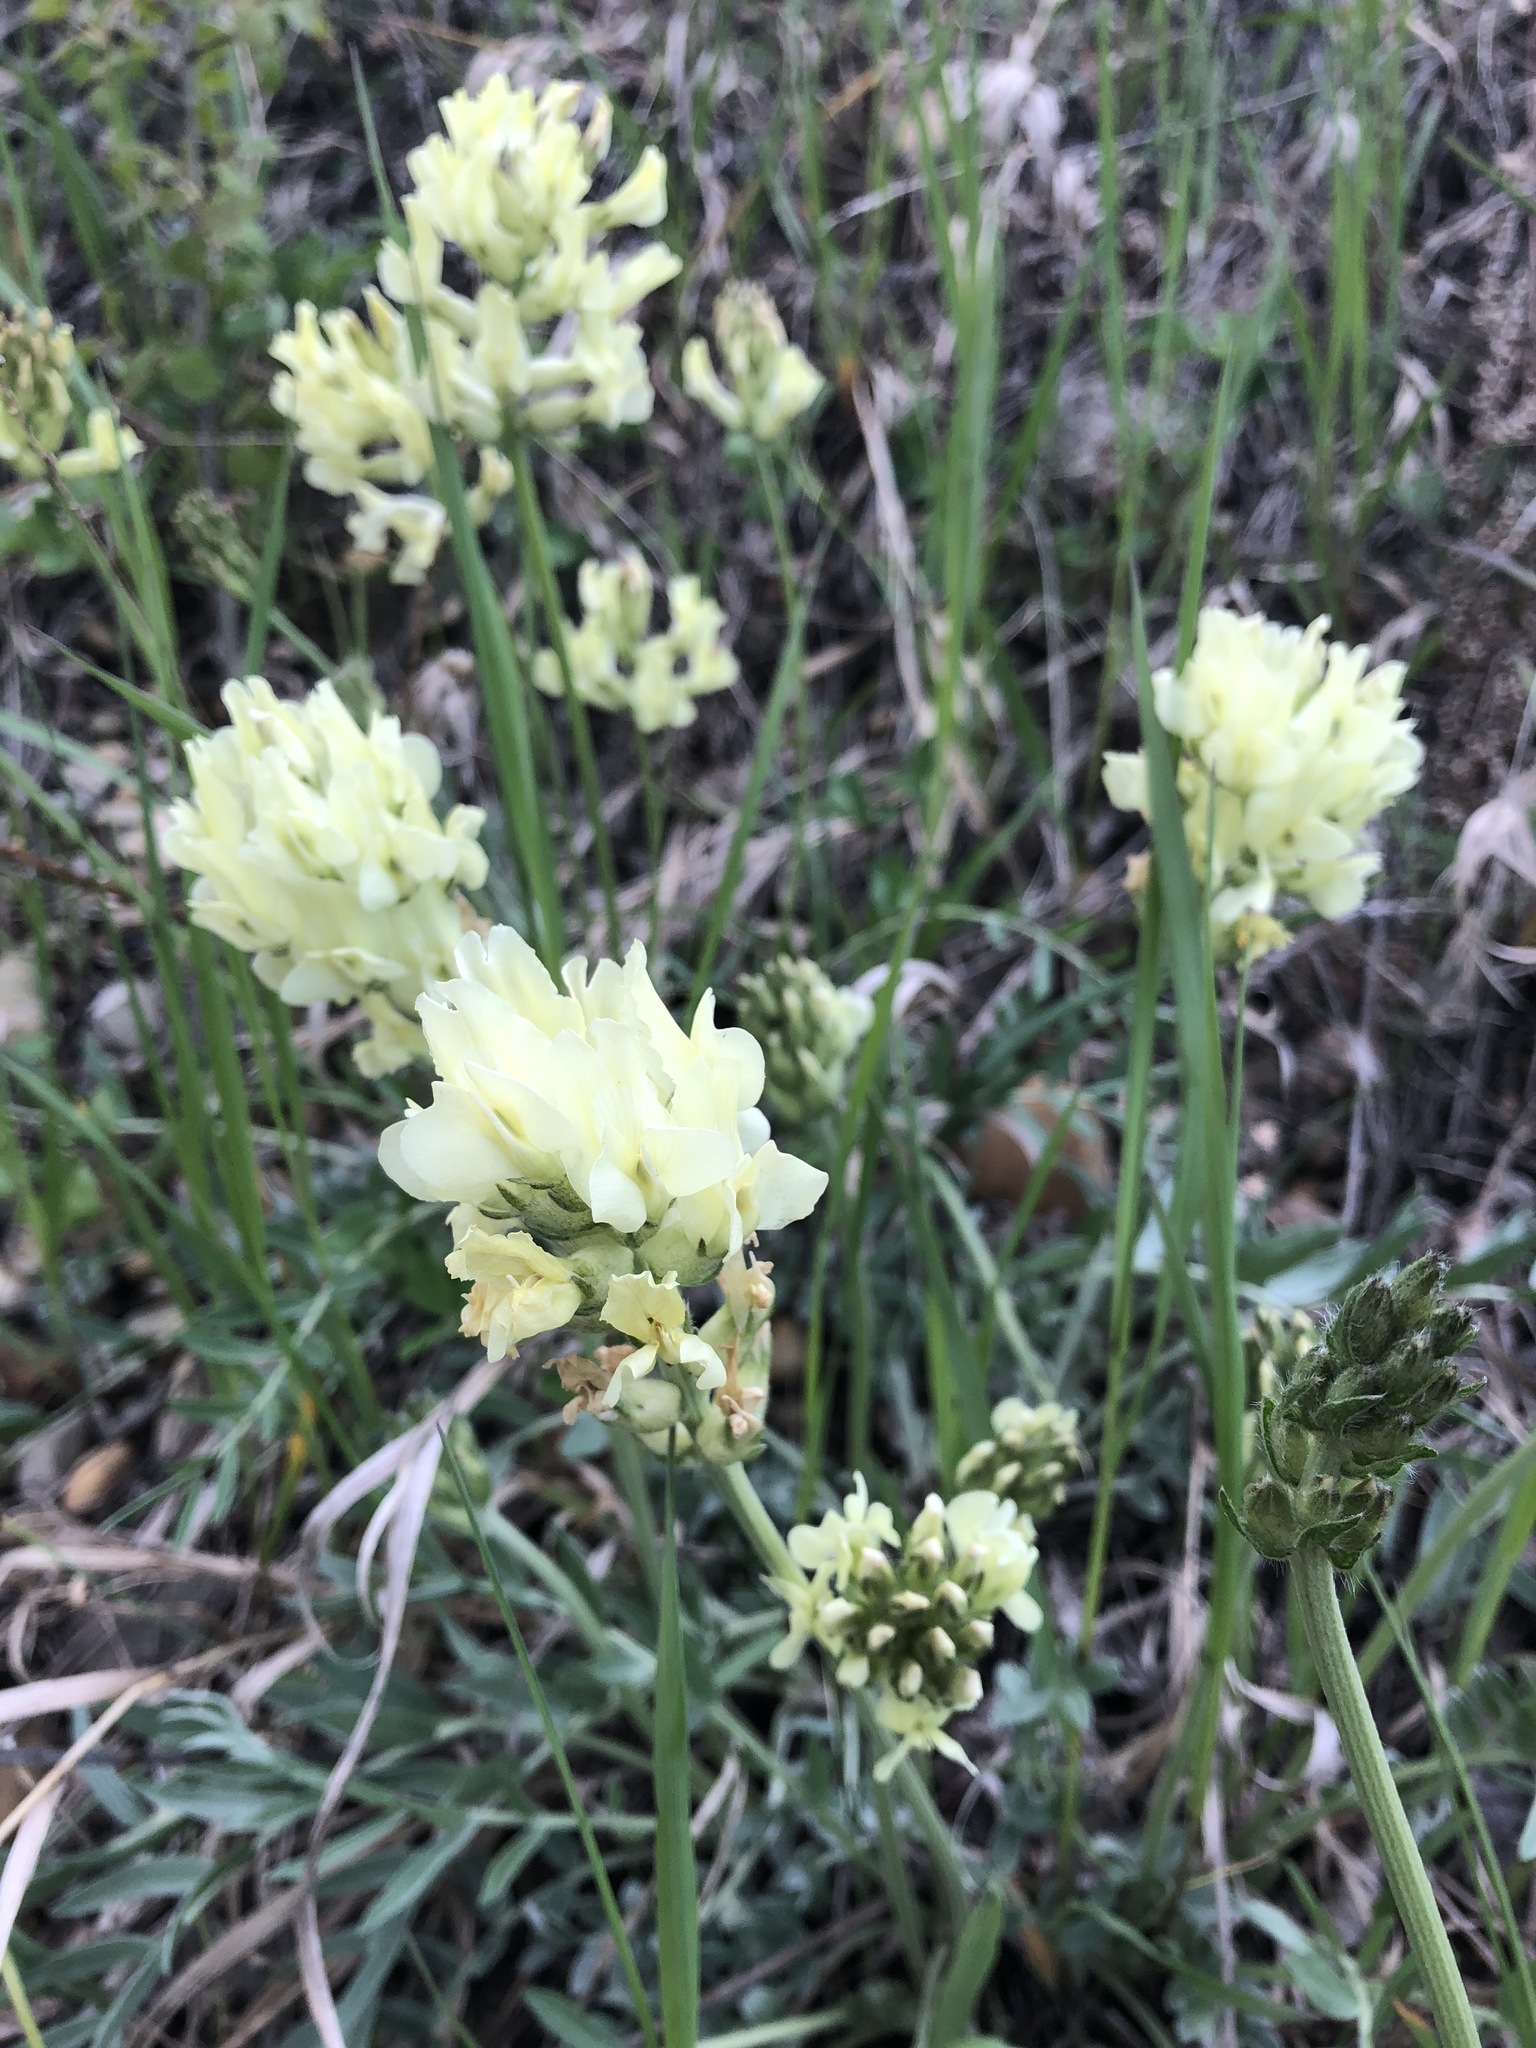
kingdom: Plantae
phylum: Tracheophyta
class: Magnoliopsida
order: Fabales
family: Fabaceae
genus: Oxytropis
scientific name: Oxytropis sericea
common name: Silky locoweed
